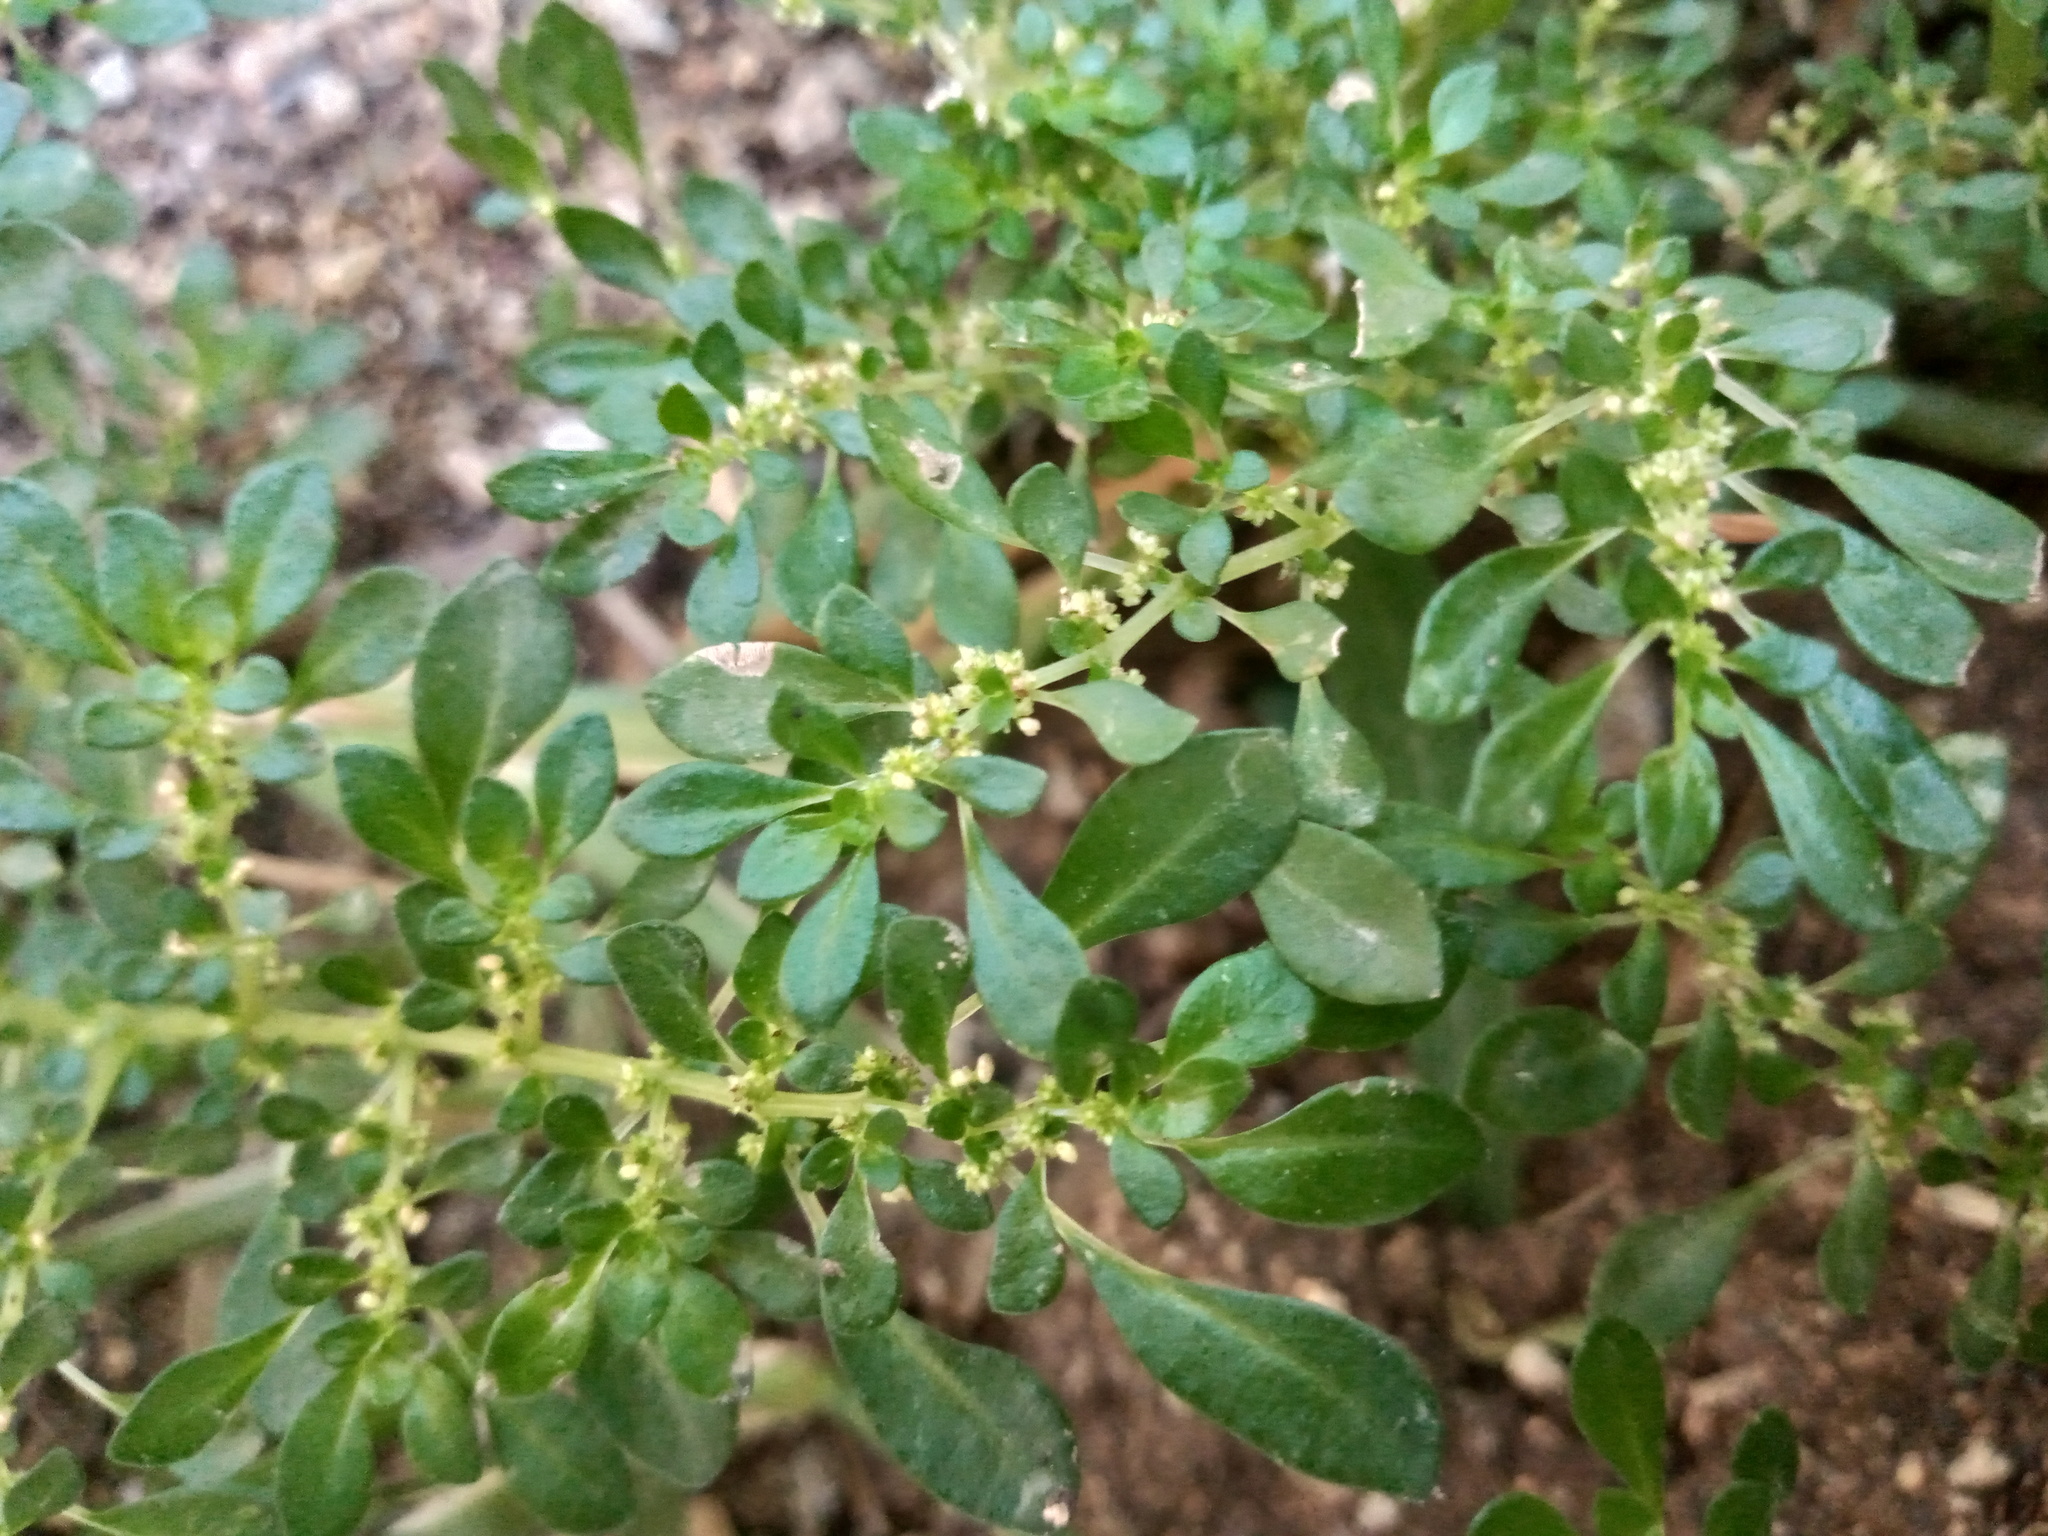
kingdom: Plantae
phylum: Tracheophyta
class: Magnoliopsida
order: Rosales
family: Urticaceae
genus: Pilea
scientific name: Pilea microphylla
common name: Artillery-plant
